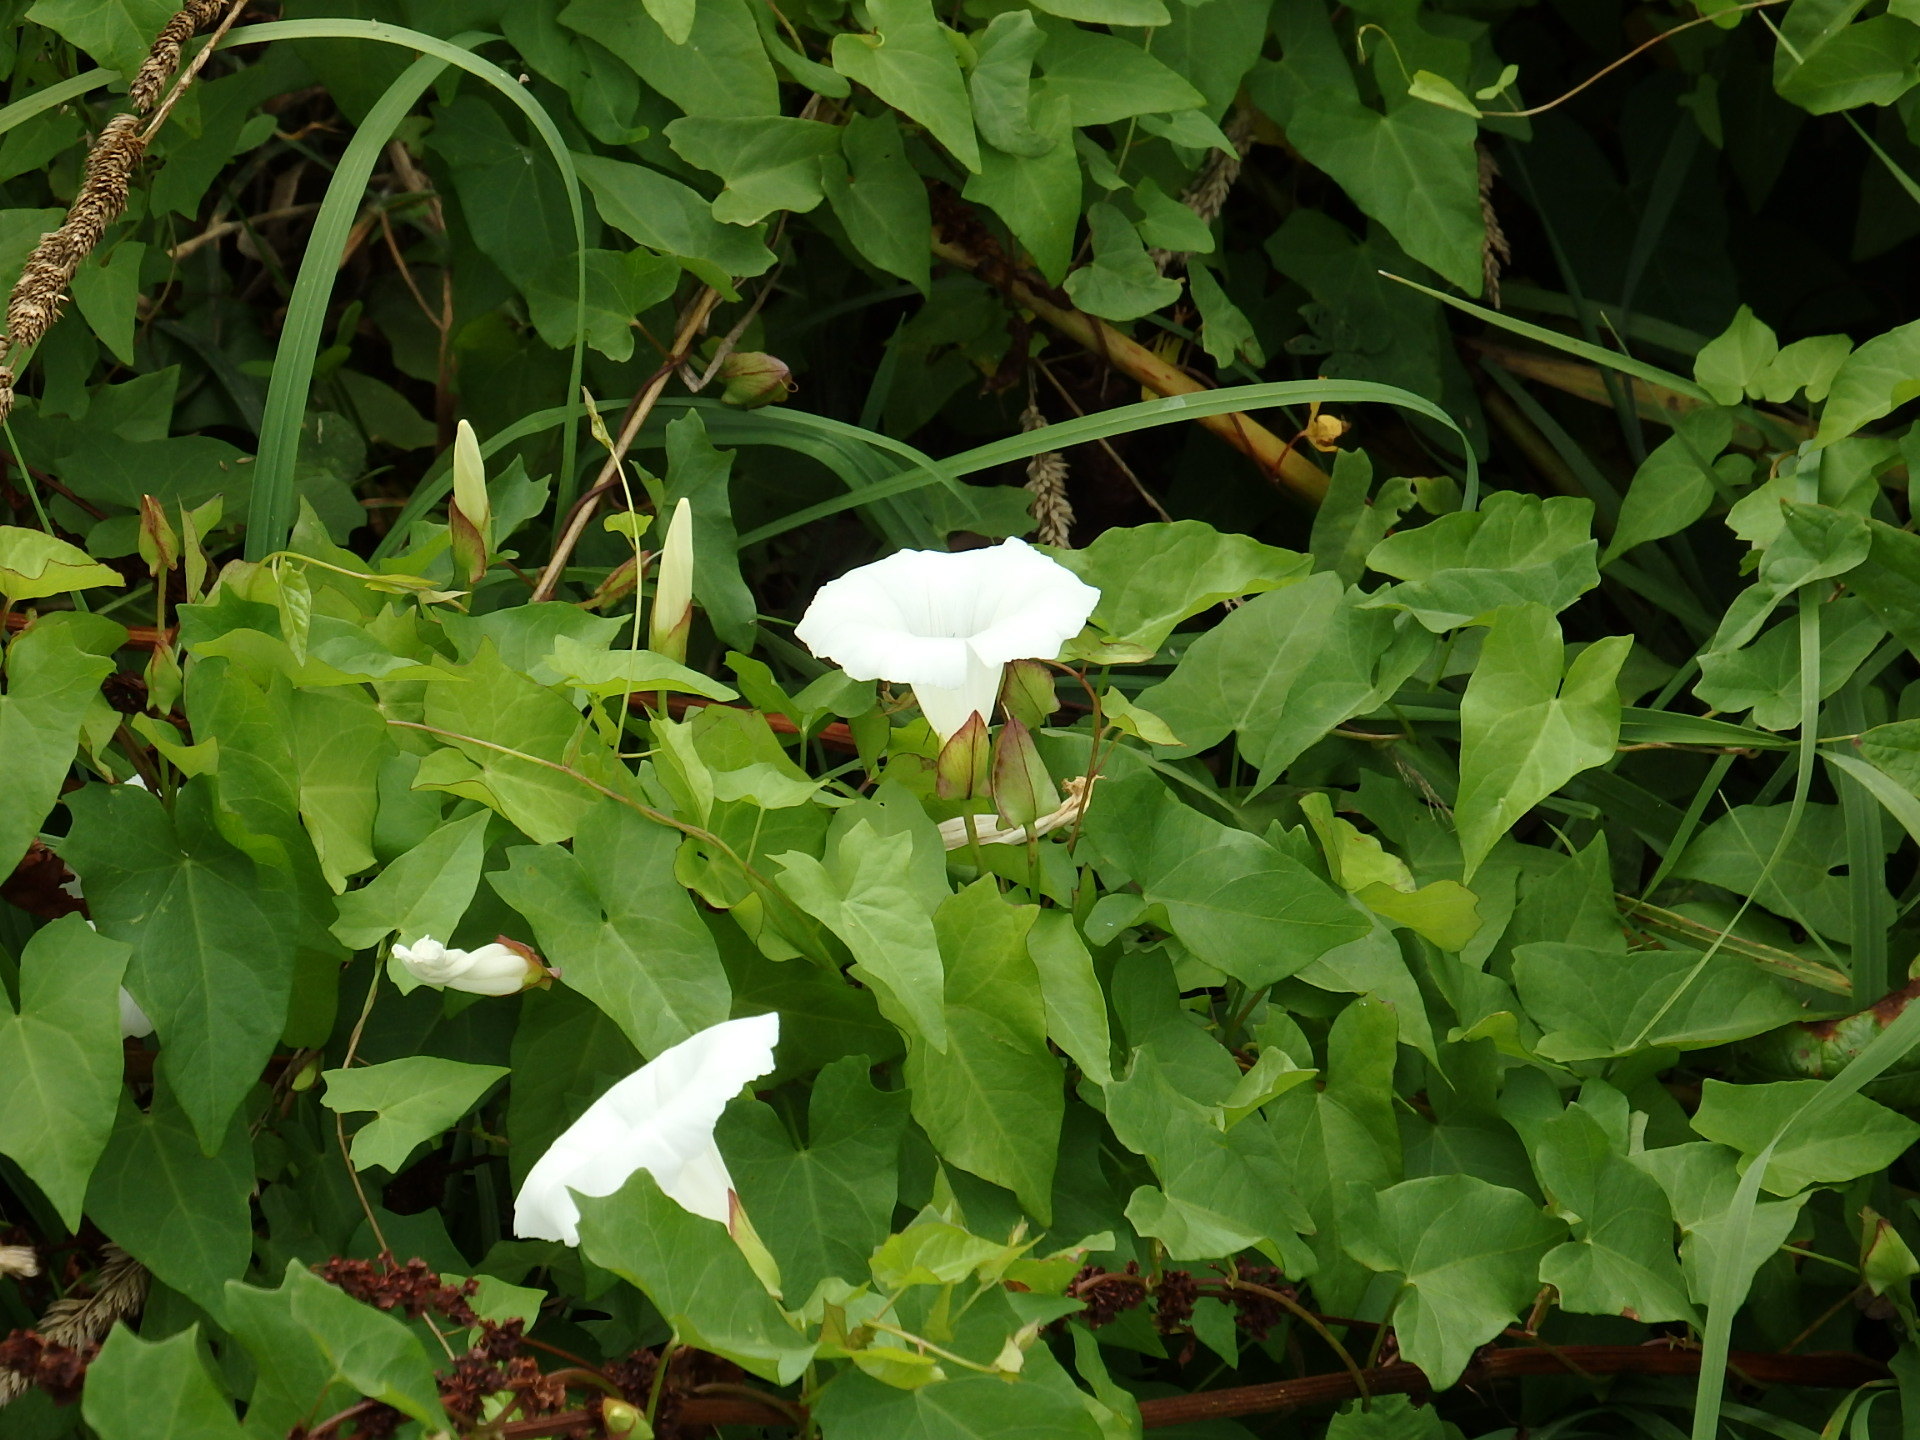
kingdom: Plantae
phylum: Tracheophyta
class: Magnoliopsida
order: Solanales
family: Convolvulaceae
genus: Calystegia
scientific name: Calystegia sepium
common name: Hedge bindweed
